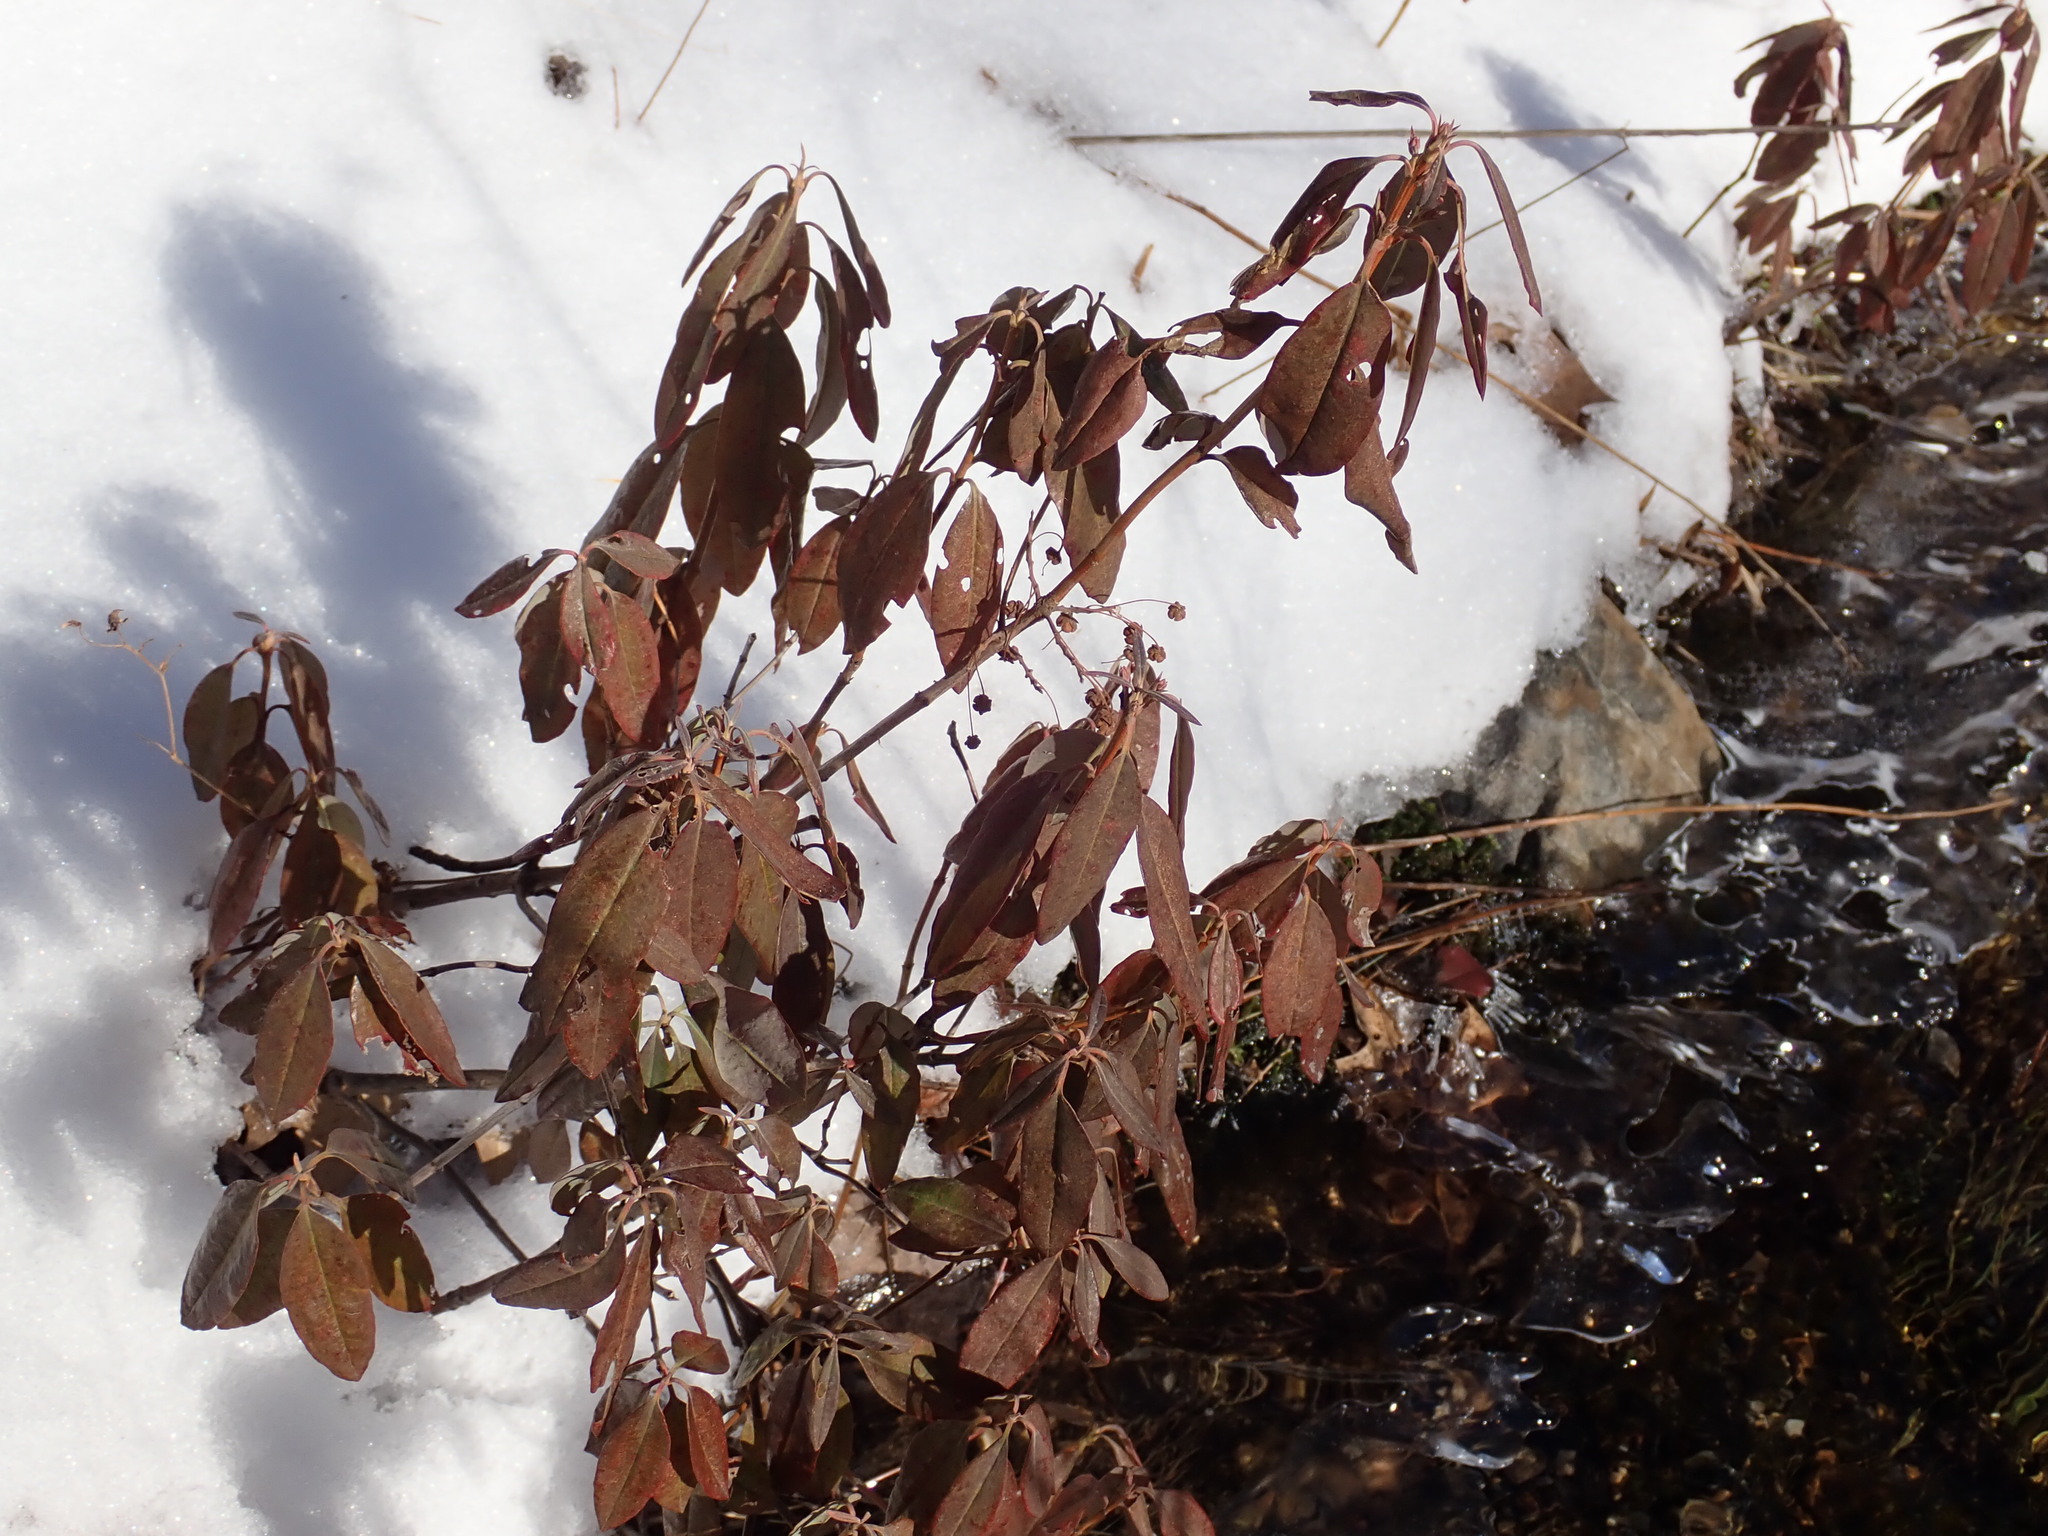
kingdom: Plantae
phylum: Tracheophyta
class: Magnoliopsida
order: Ericales
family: Ericaceae
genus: Kalmia
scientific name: Kalmia angustifolia
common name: Sheep-laurel
